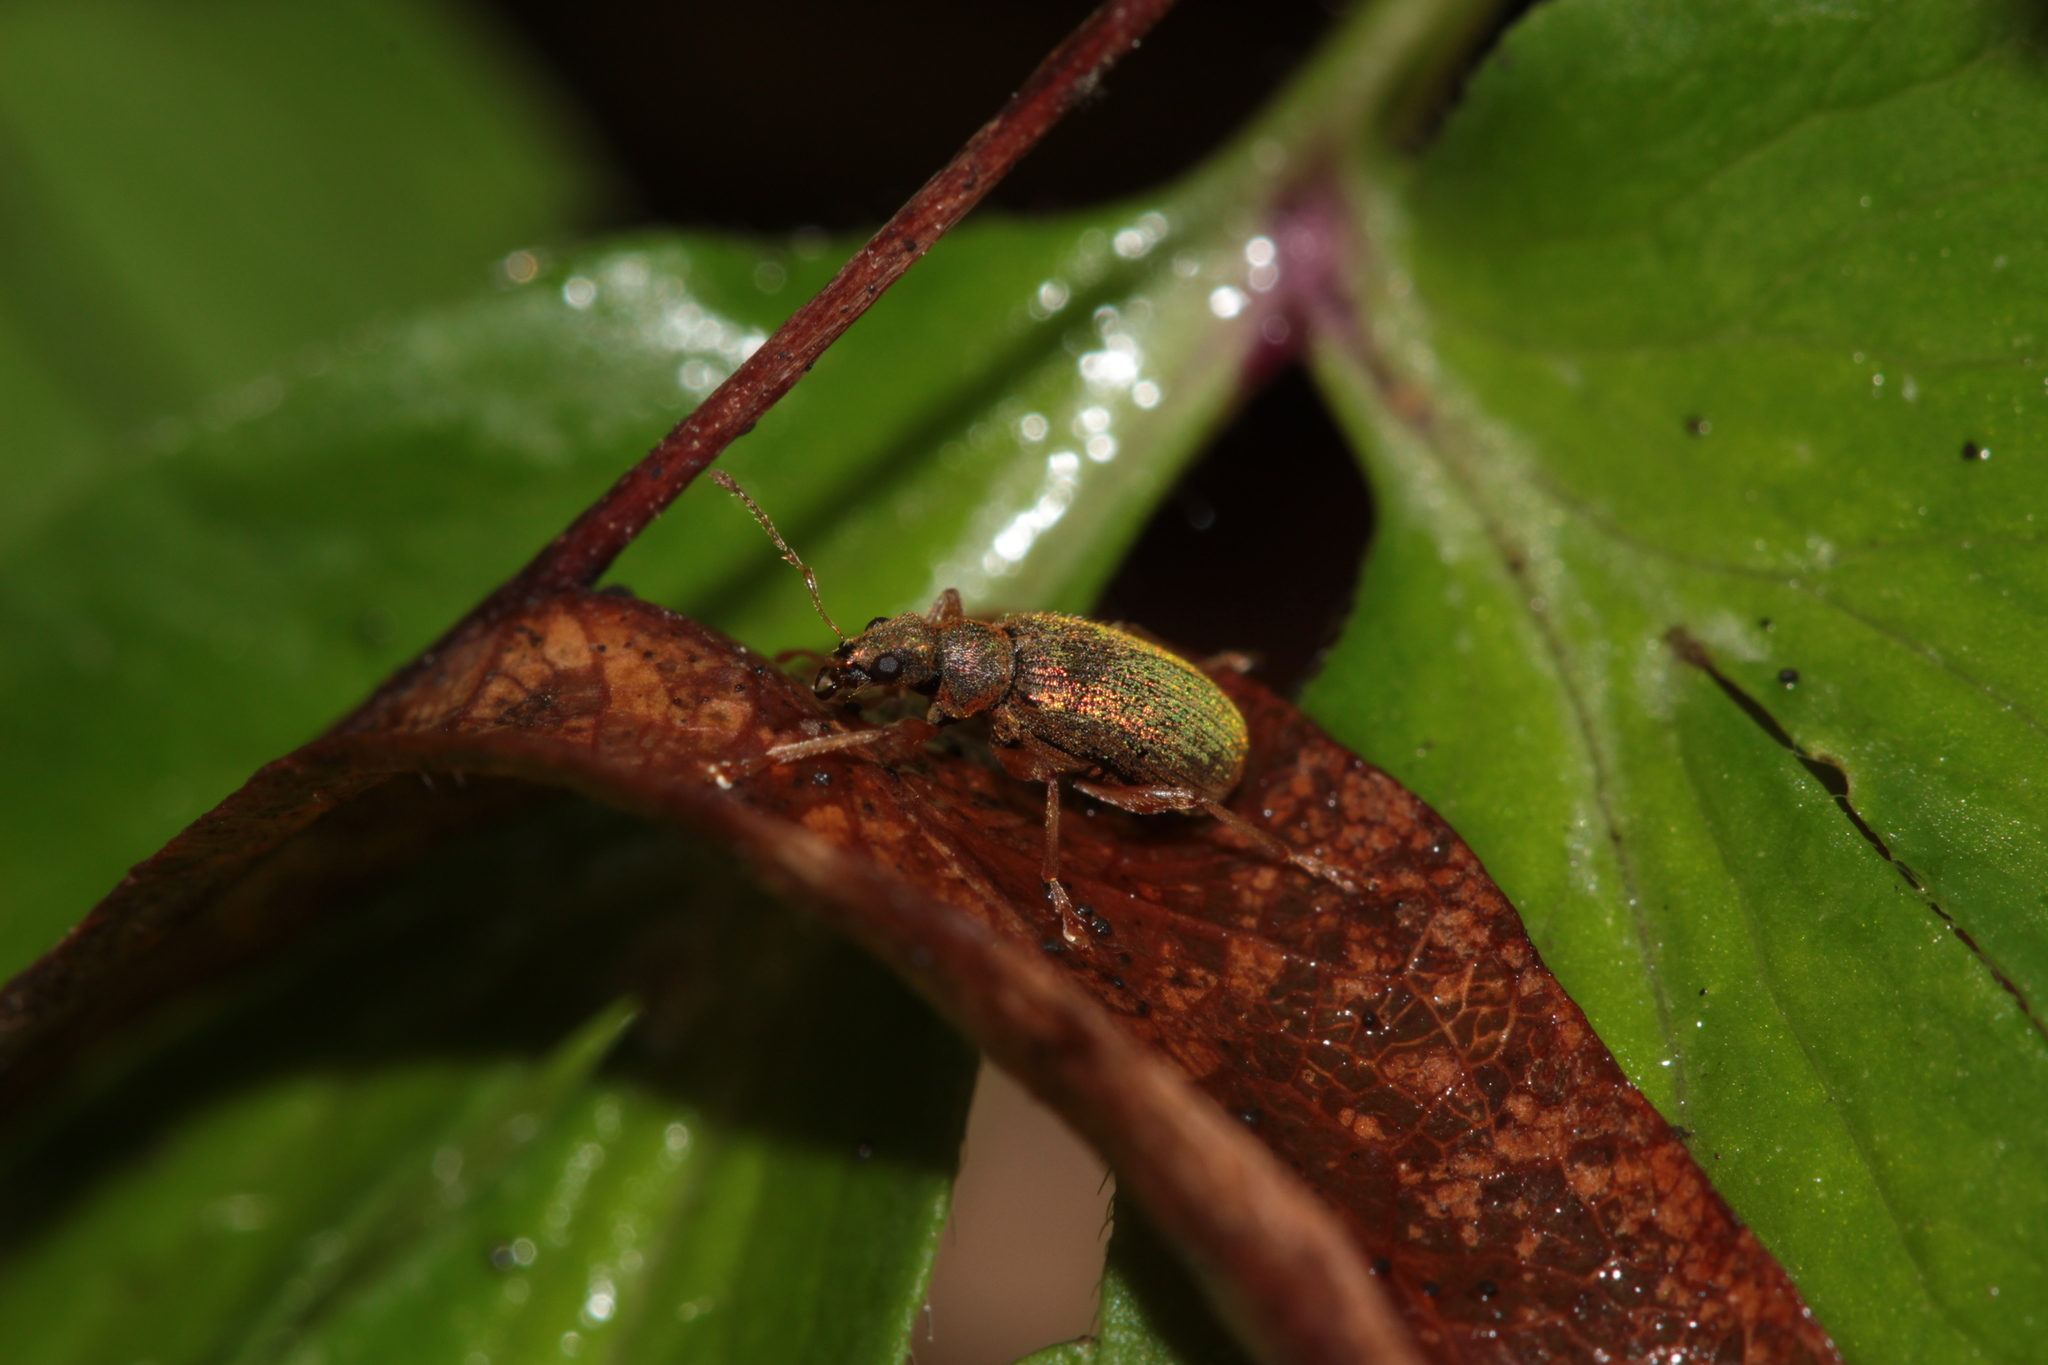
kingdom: Animalia
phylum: Arthropoda
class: Insecta
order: Coleoptera
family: Curculionidae
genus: Polydrusus
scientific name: Polydrusus pterygomalis
